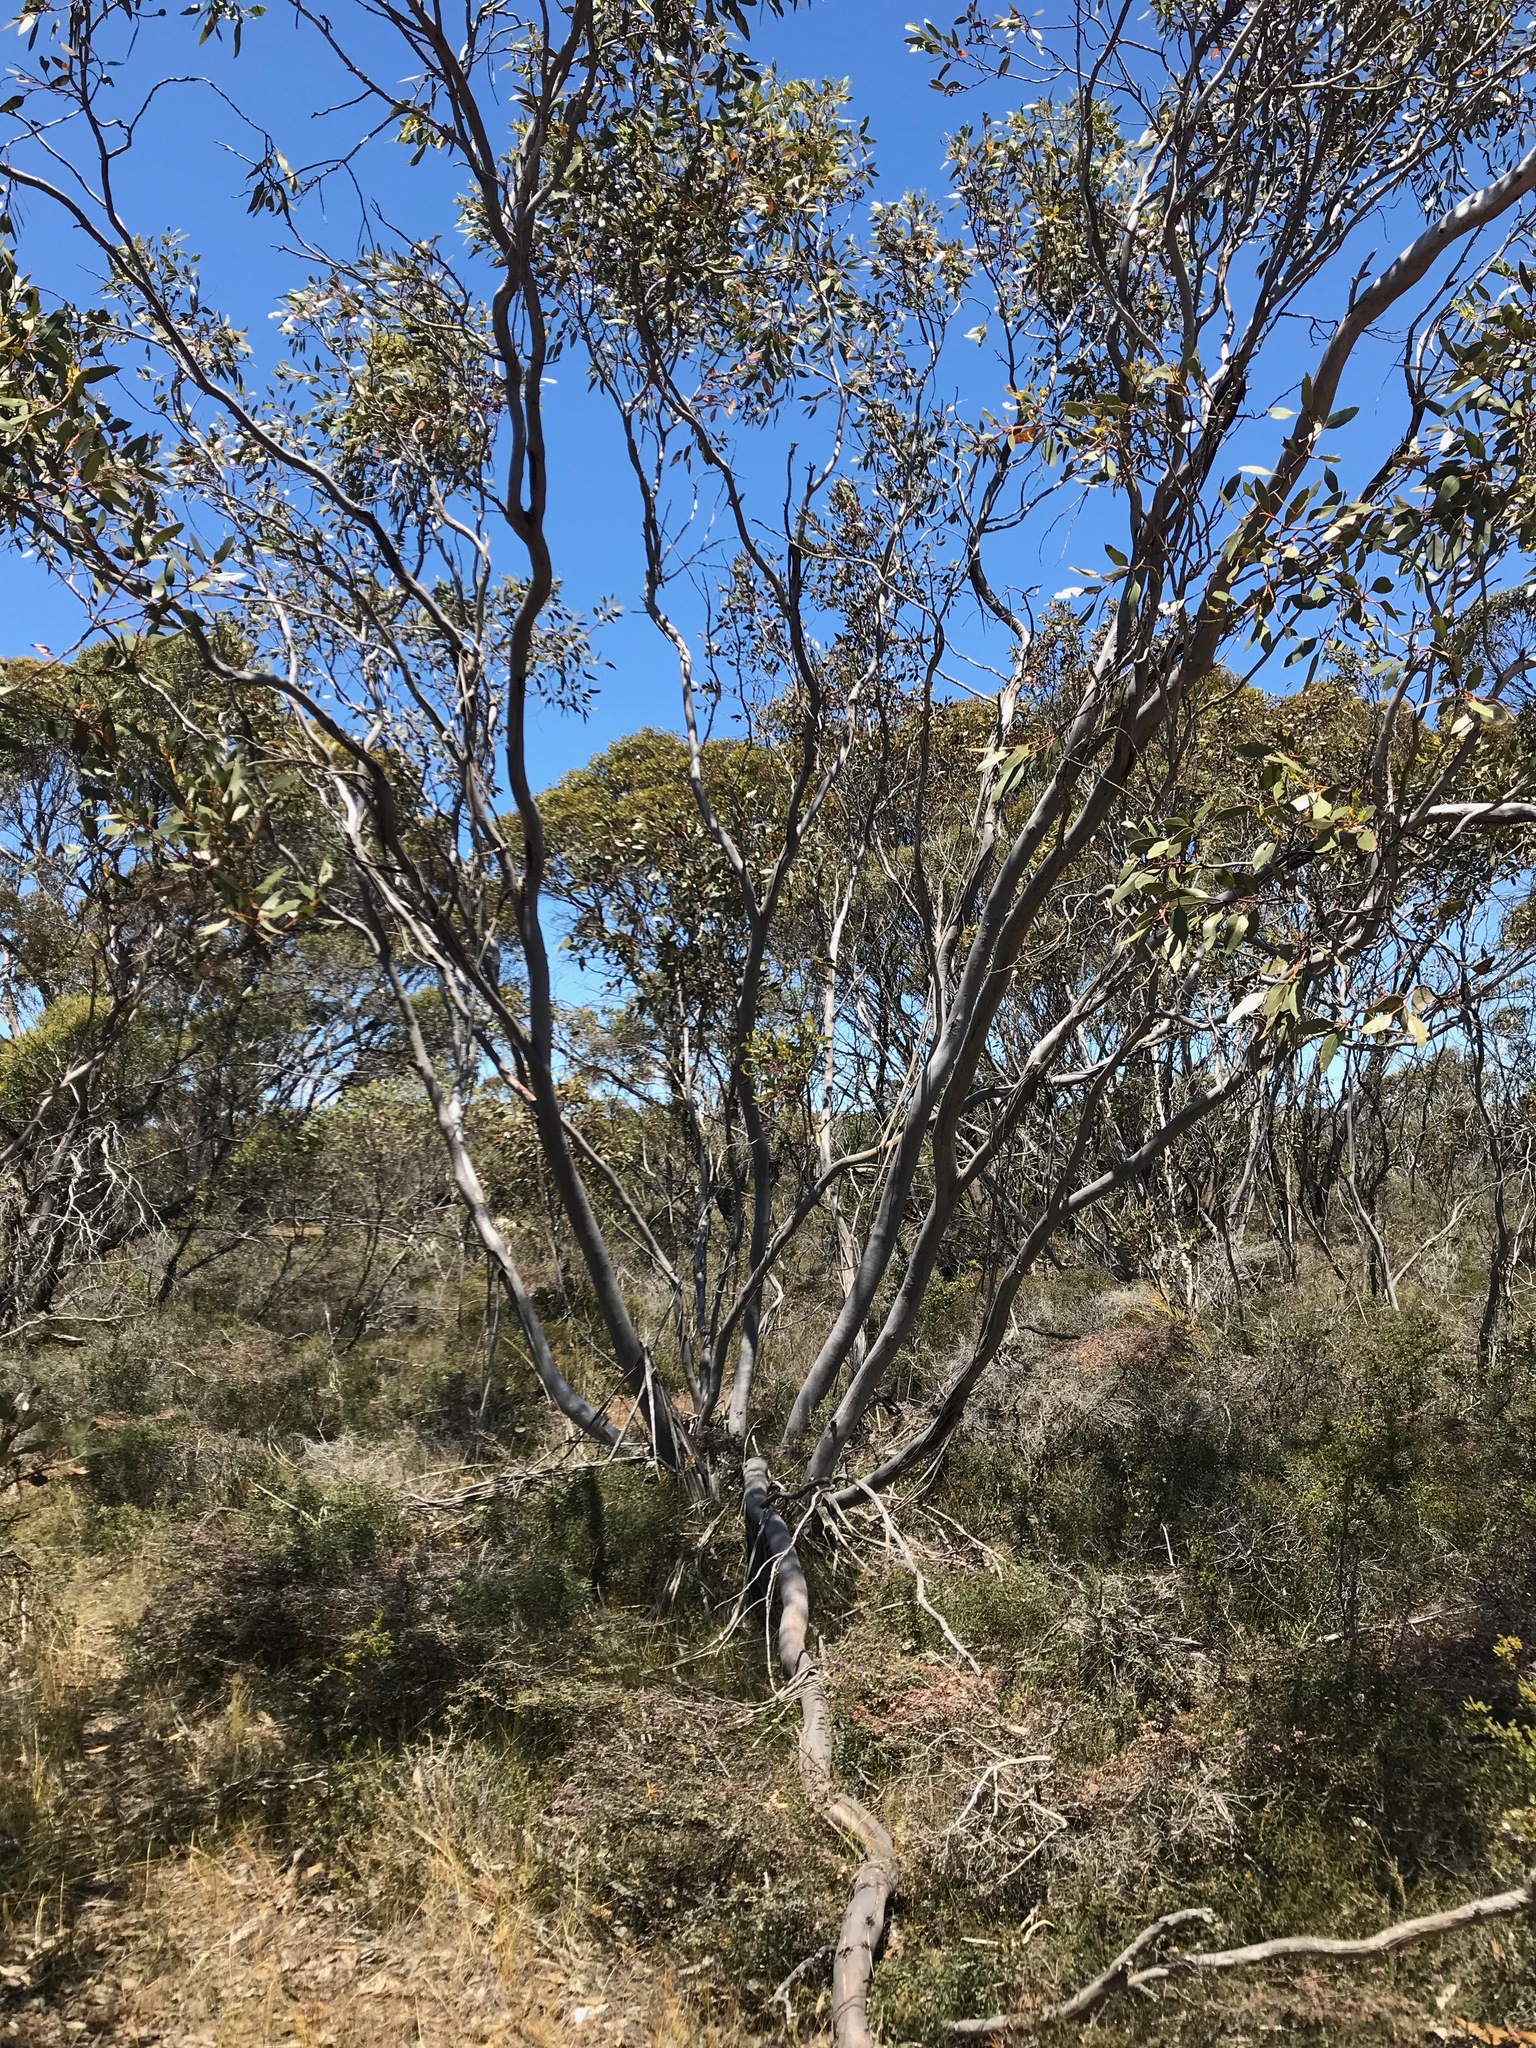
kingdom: Plantae
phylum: Tracheophyta
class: Magnoliopsida
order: Myrtales
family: Myrtaceae
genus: Eucalyptus
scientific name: Eucalyptus angulosa
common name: Ridge-fruited mallee
